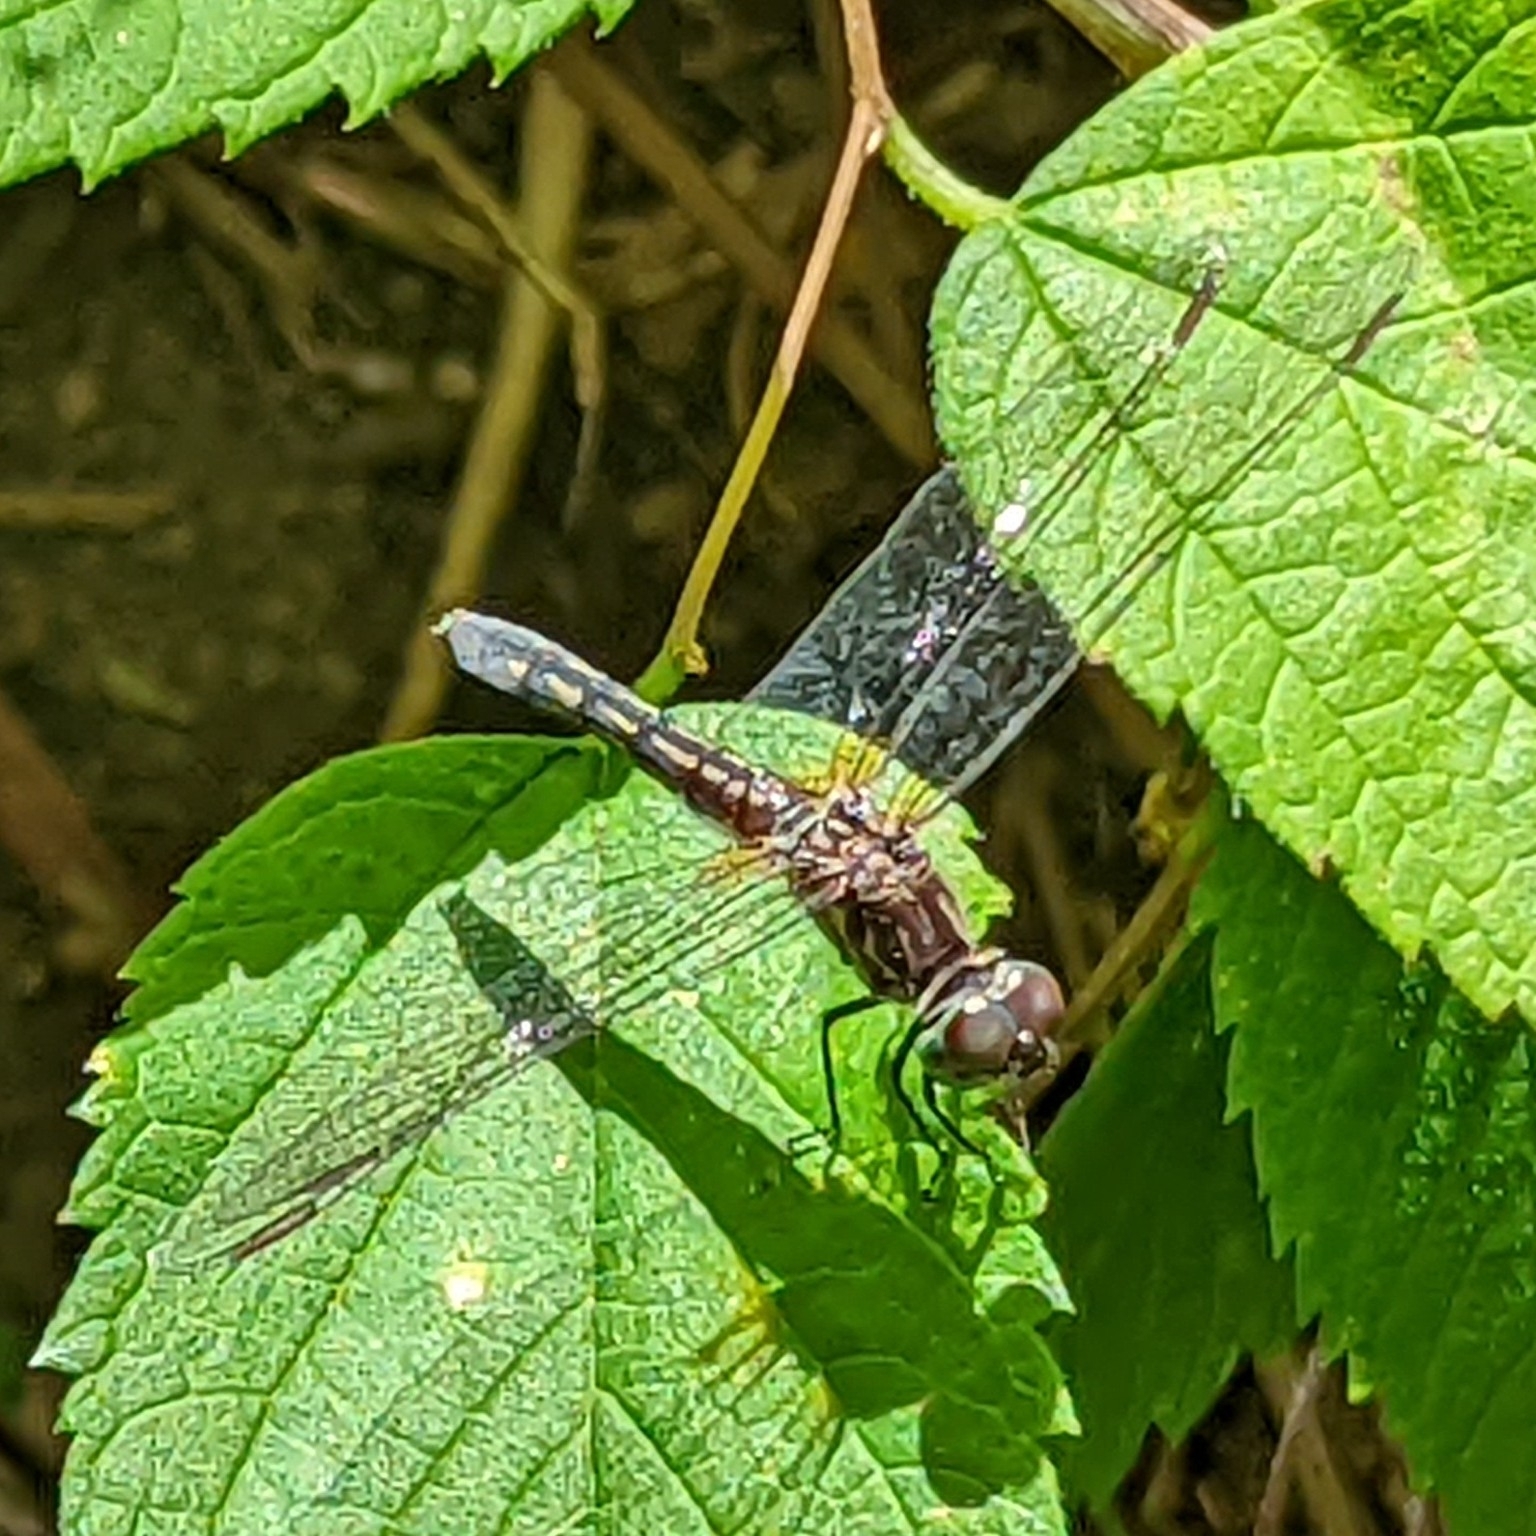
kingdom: Animalia
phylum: Arthropoda
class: Insecta
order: Odonata
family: Libellulidae
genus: Pachydiplax
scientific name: Pachydiplax longipennis
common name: Blue dasher
